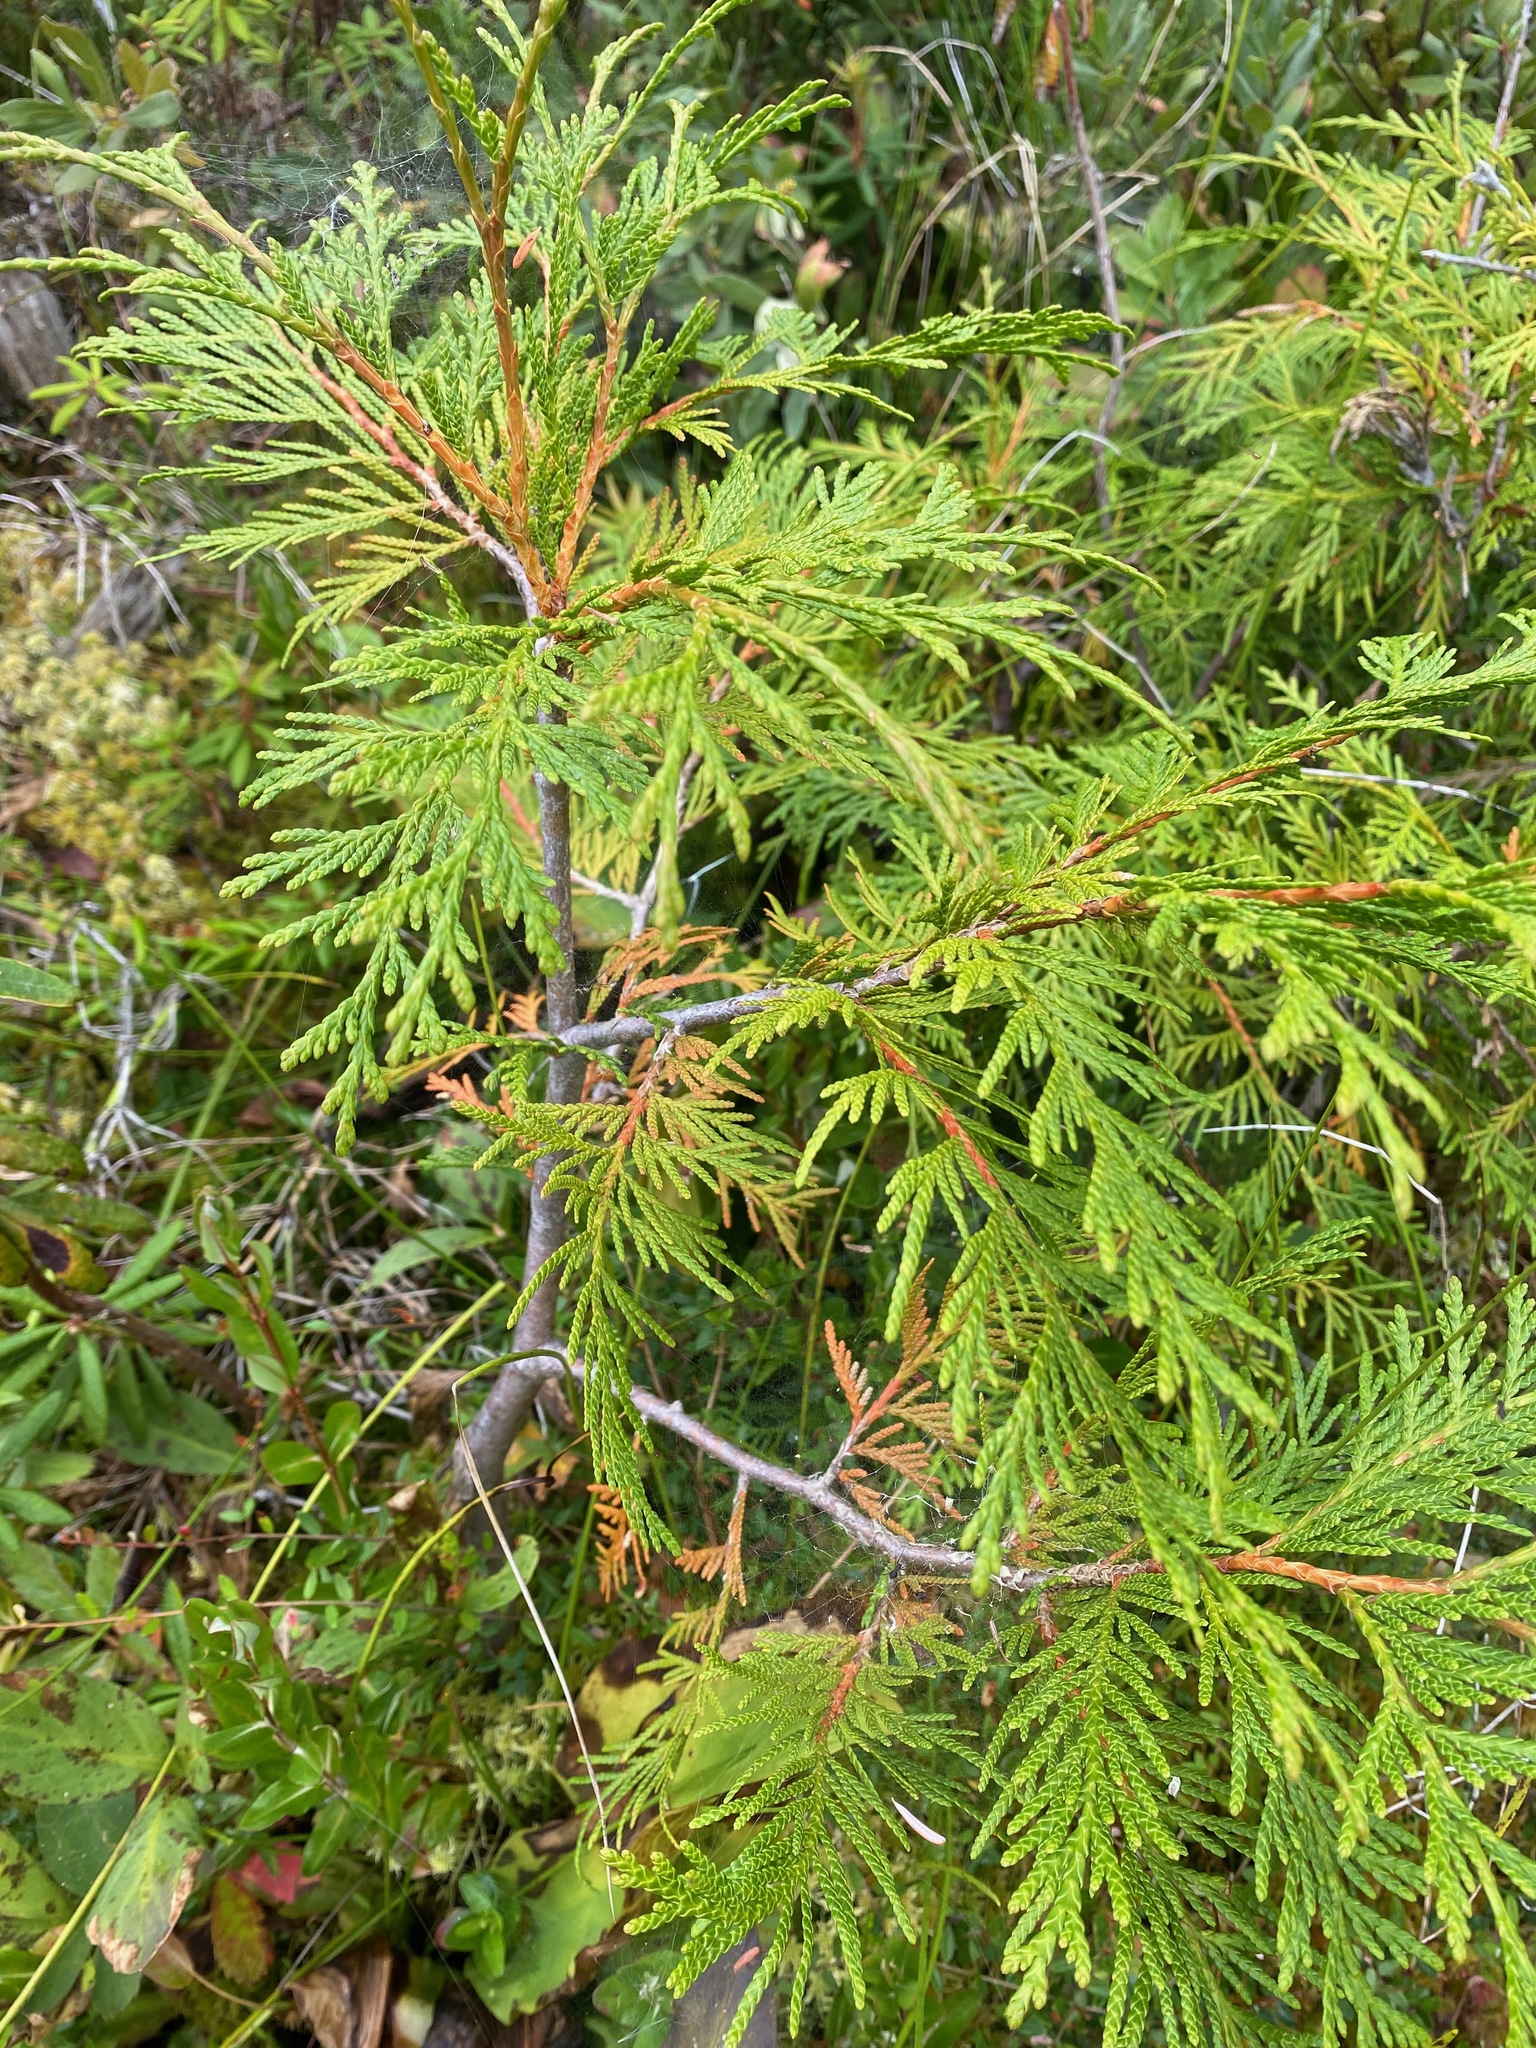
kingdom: Plantae
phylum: Tracheophyta
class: Pinopsida
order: Pinales
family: Cupressaceae
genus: Thuja
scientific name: Thuja plicata
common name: Western red-cedar
